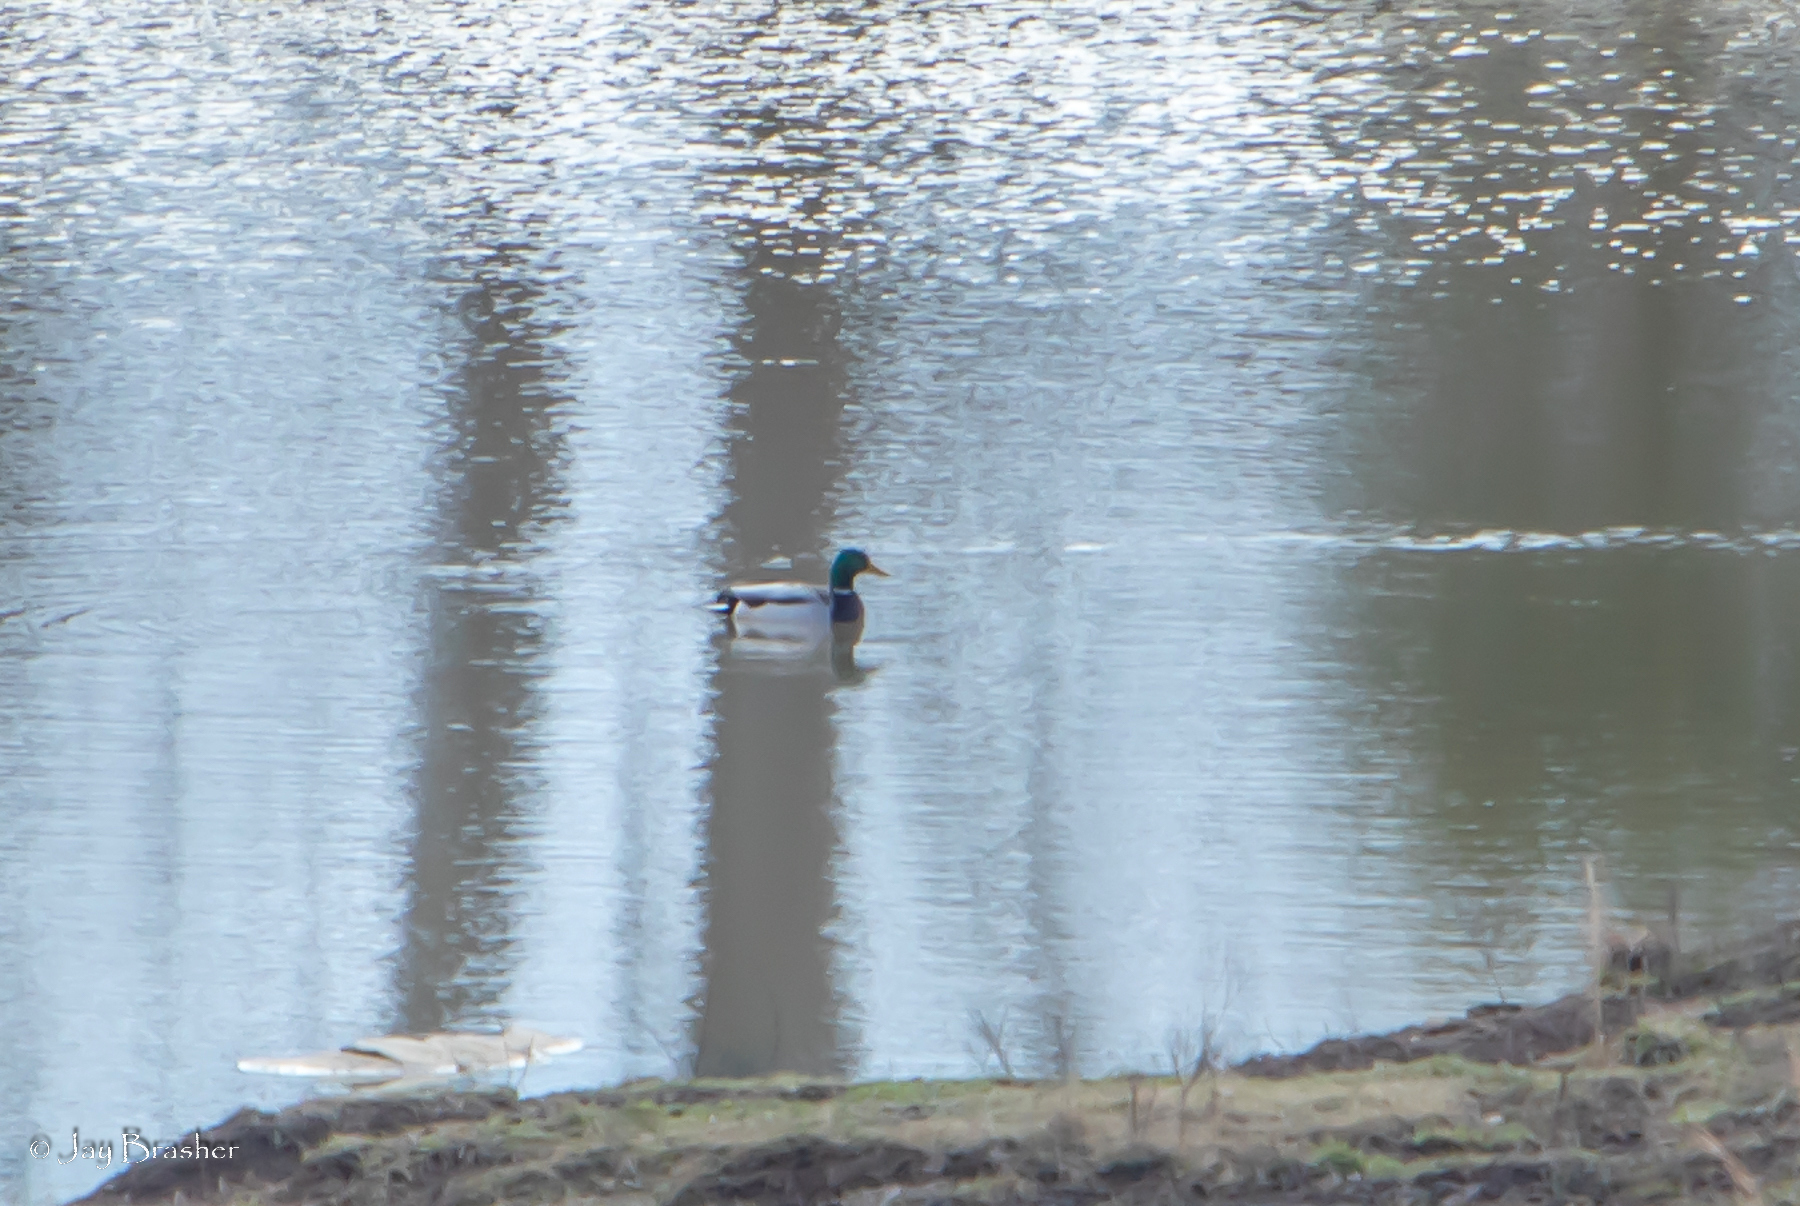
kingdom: Animalia
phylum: Chordata
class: Aves
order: Anseriformes
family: Anatidae
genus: Anas
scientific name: Anas platyrhynchos
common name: Mallard
